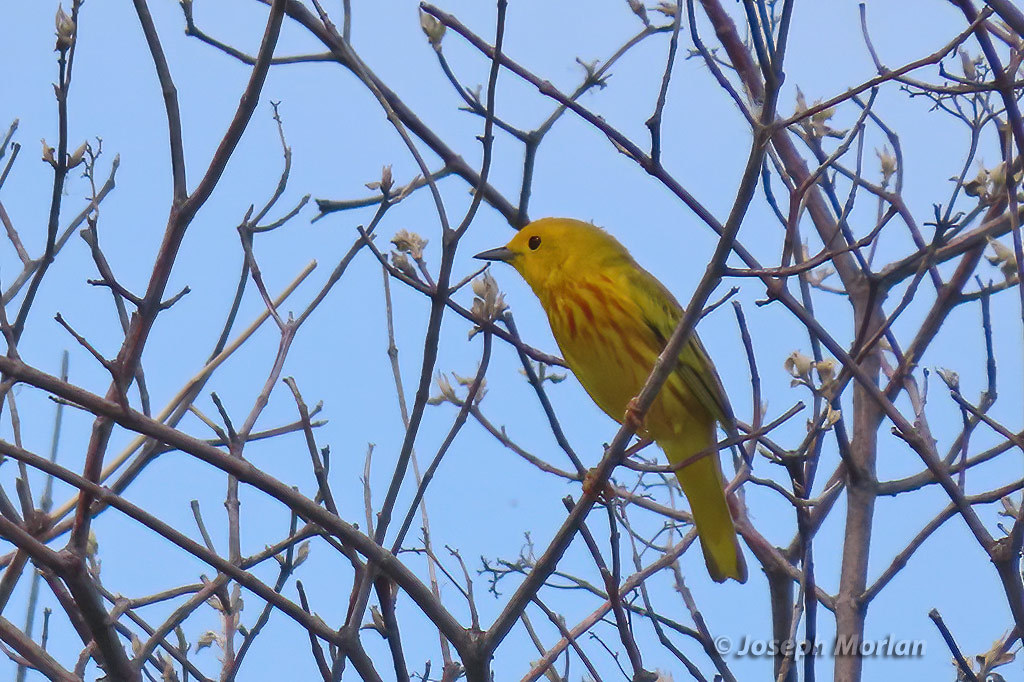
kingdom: Animalia
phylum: Chordata
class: Aves
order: Passeriformes
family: Parulidae
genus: Setophaga
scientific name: Setophaga petechia
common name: Yellow warbler
